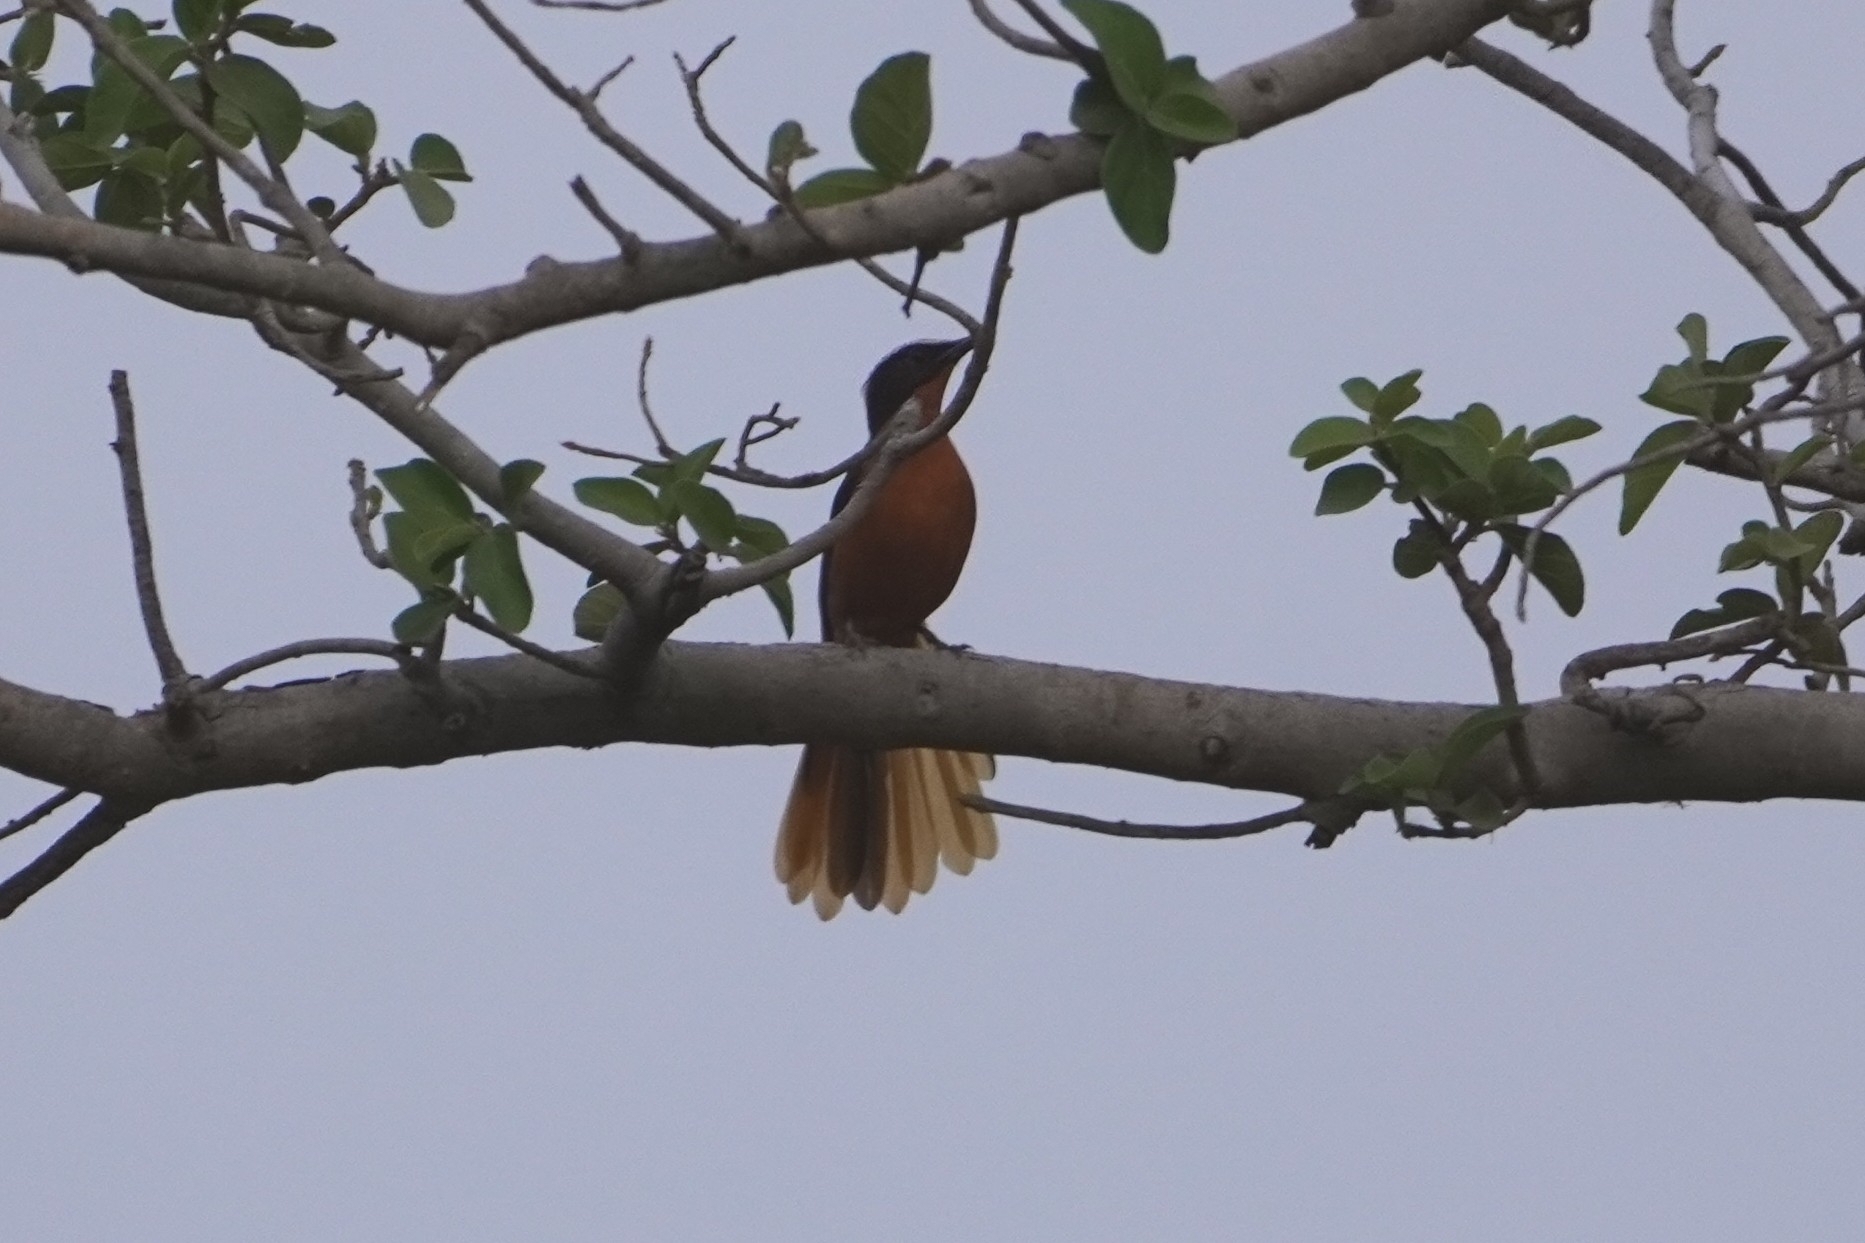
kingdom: Animalia
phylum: Chordata
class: Aves
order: Passeriformes
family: Muscicapidae
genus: Cossypha
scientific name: Cossypha albicapillus
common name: White-crowned robin-chat
